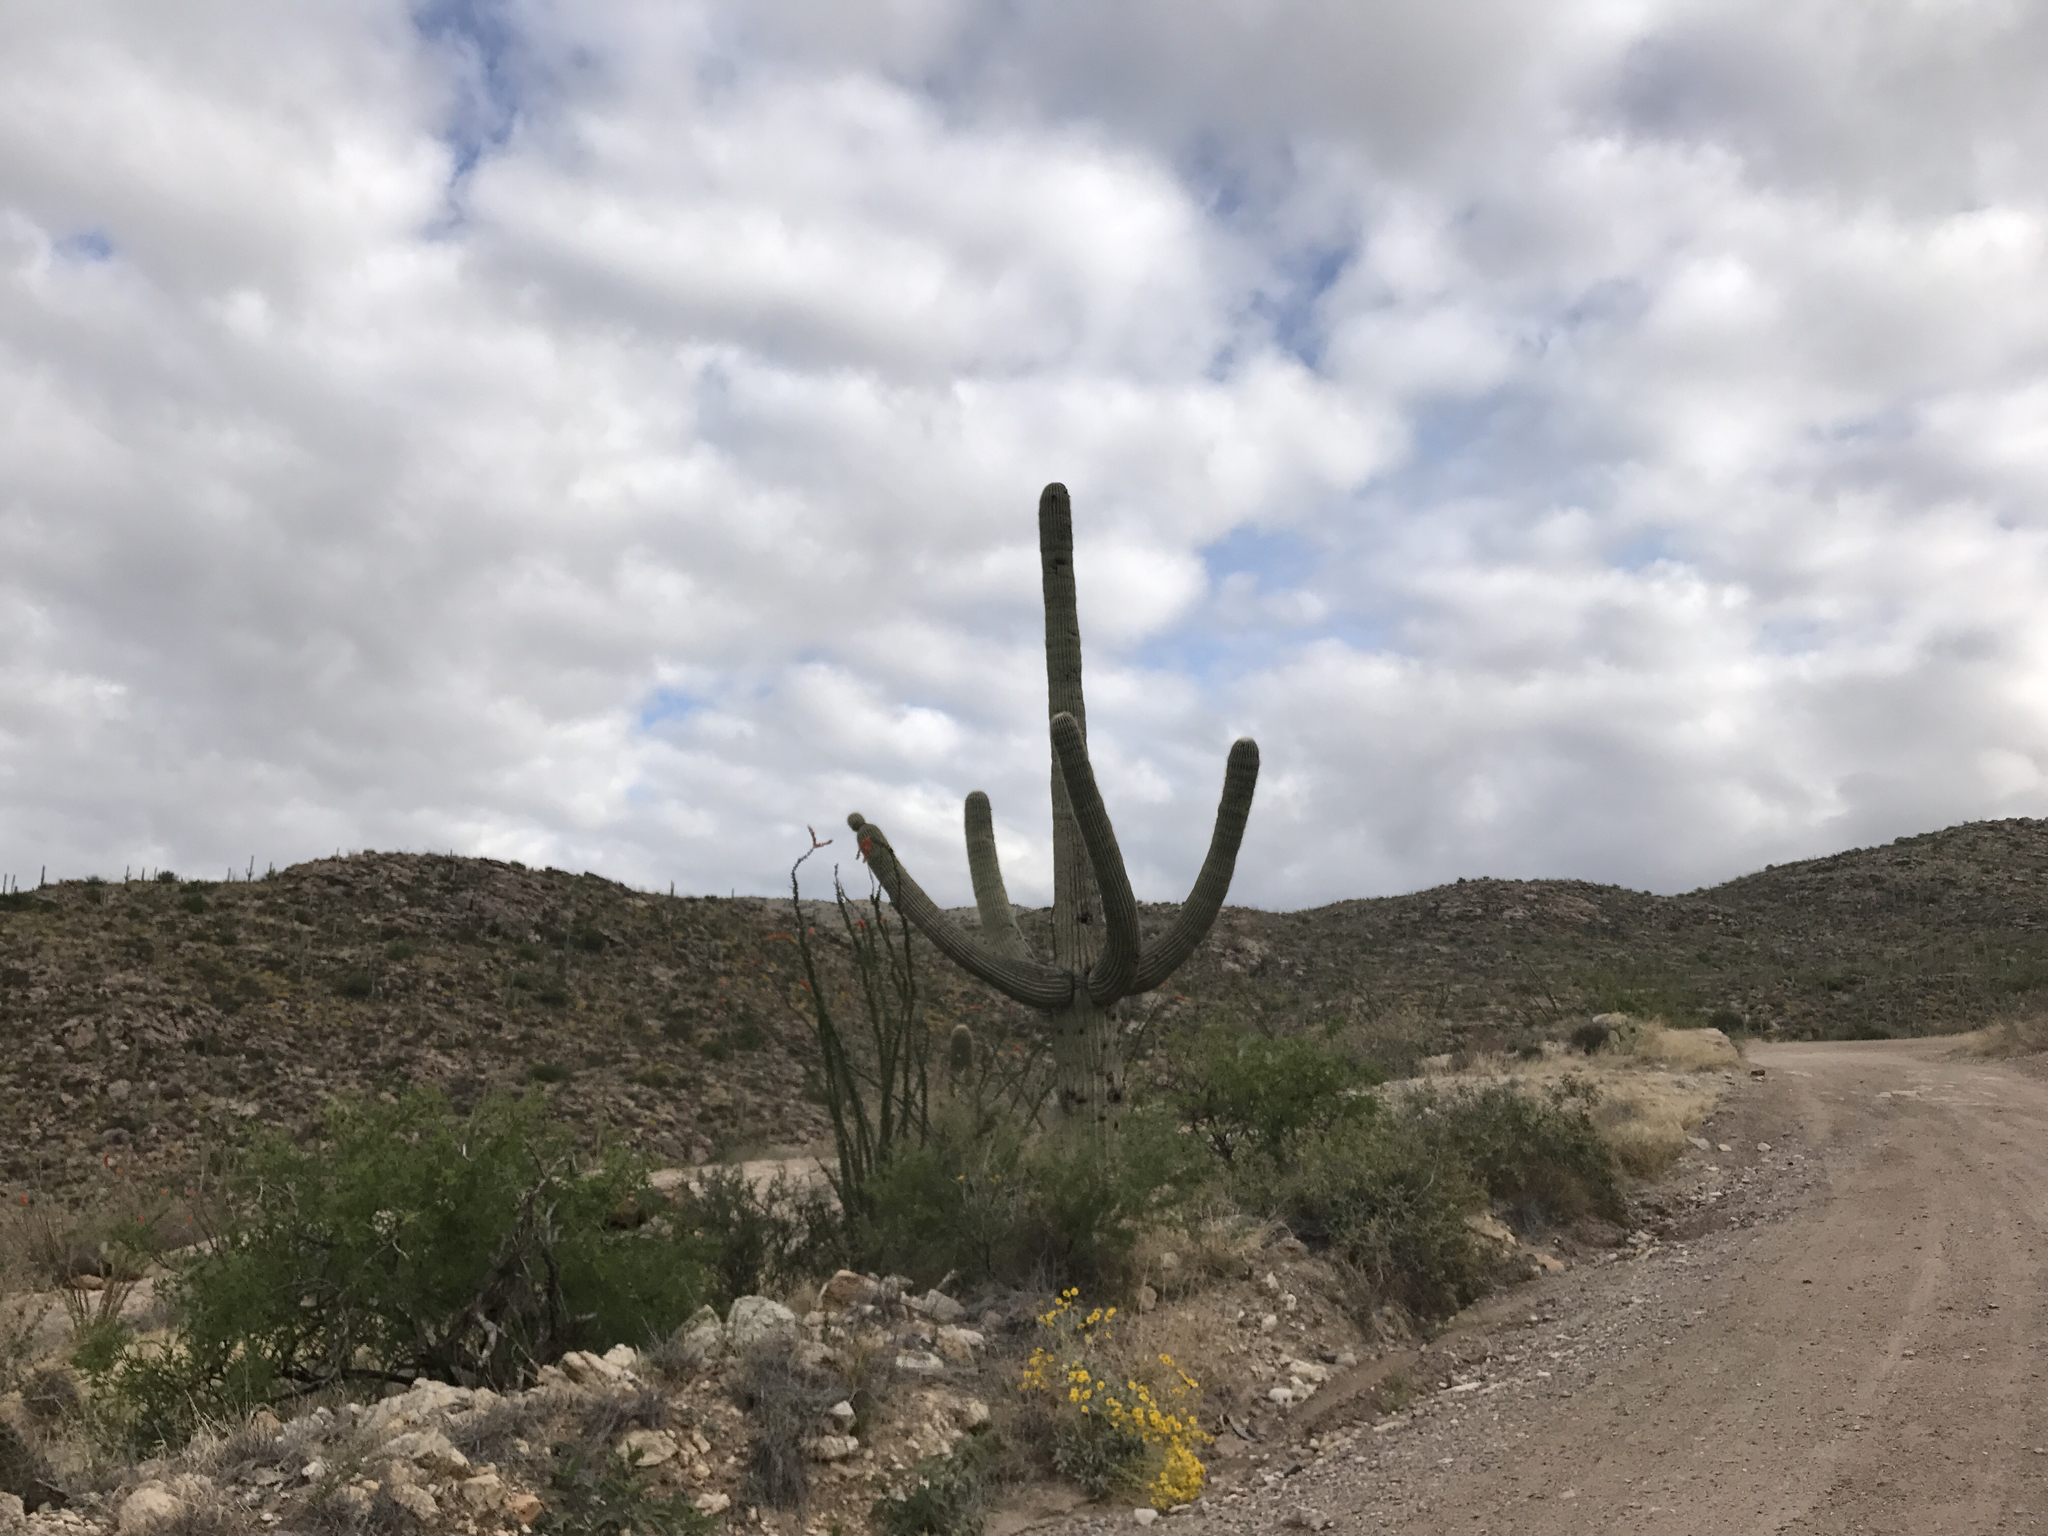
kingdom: Plantae
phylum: Tracheophyta
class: Magnoliopsida
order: Caryophyllales
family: Cactaceae
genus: Carnegiea
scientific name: Carnegiea gigantea
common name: Saguaro
